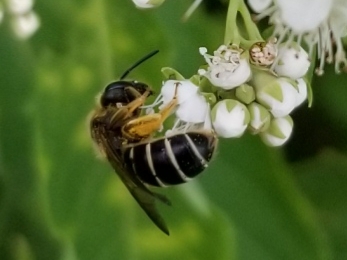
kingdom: Animalia
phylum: Arthropoda
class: Insecta
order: Hymenoptera
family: Halictidae
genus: Halictus
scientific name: Halictus rubicundus
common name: Orange-legged furrow bee
